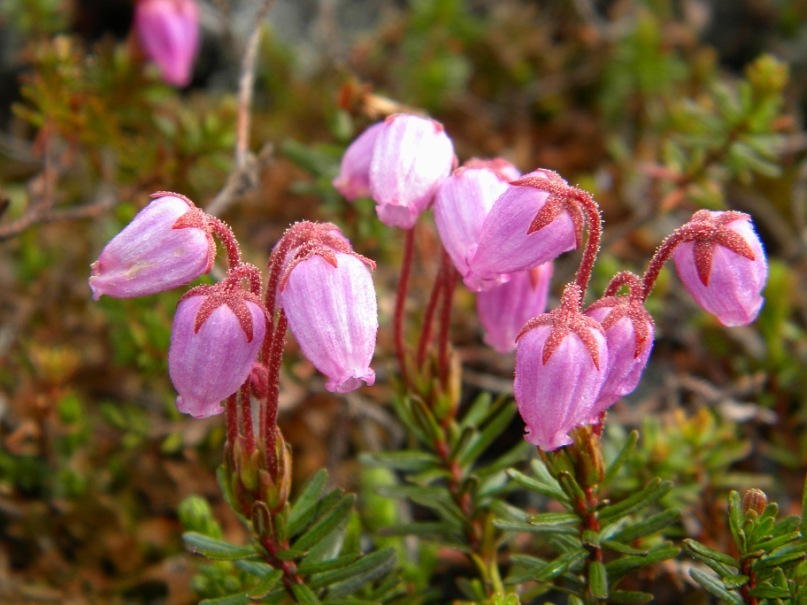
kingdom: Plantae
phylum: Tracheophyta
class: Magnoliopsida
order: Ericales
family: Ericaceae
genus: Phyllodoce
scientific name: Phyllodoce caerulea
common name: Blue heath
